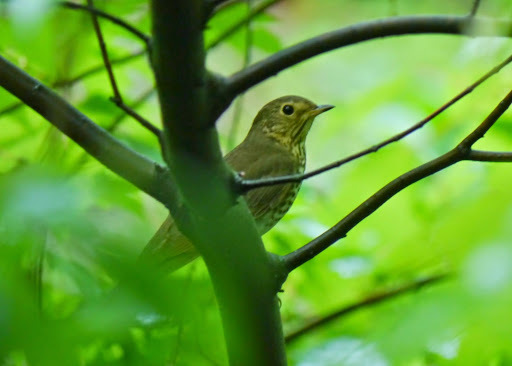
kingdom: Animalia
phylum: Chordata
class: Aves
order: Passeriformes
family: Turdidae
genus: Catharus
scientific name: Catharus ustulatus
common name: Swainson's thrush
